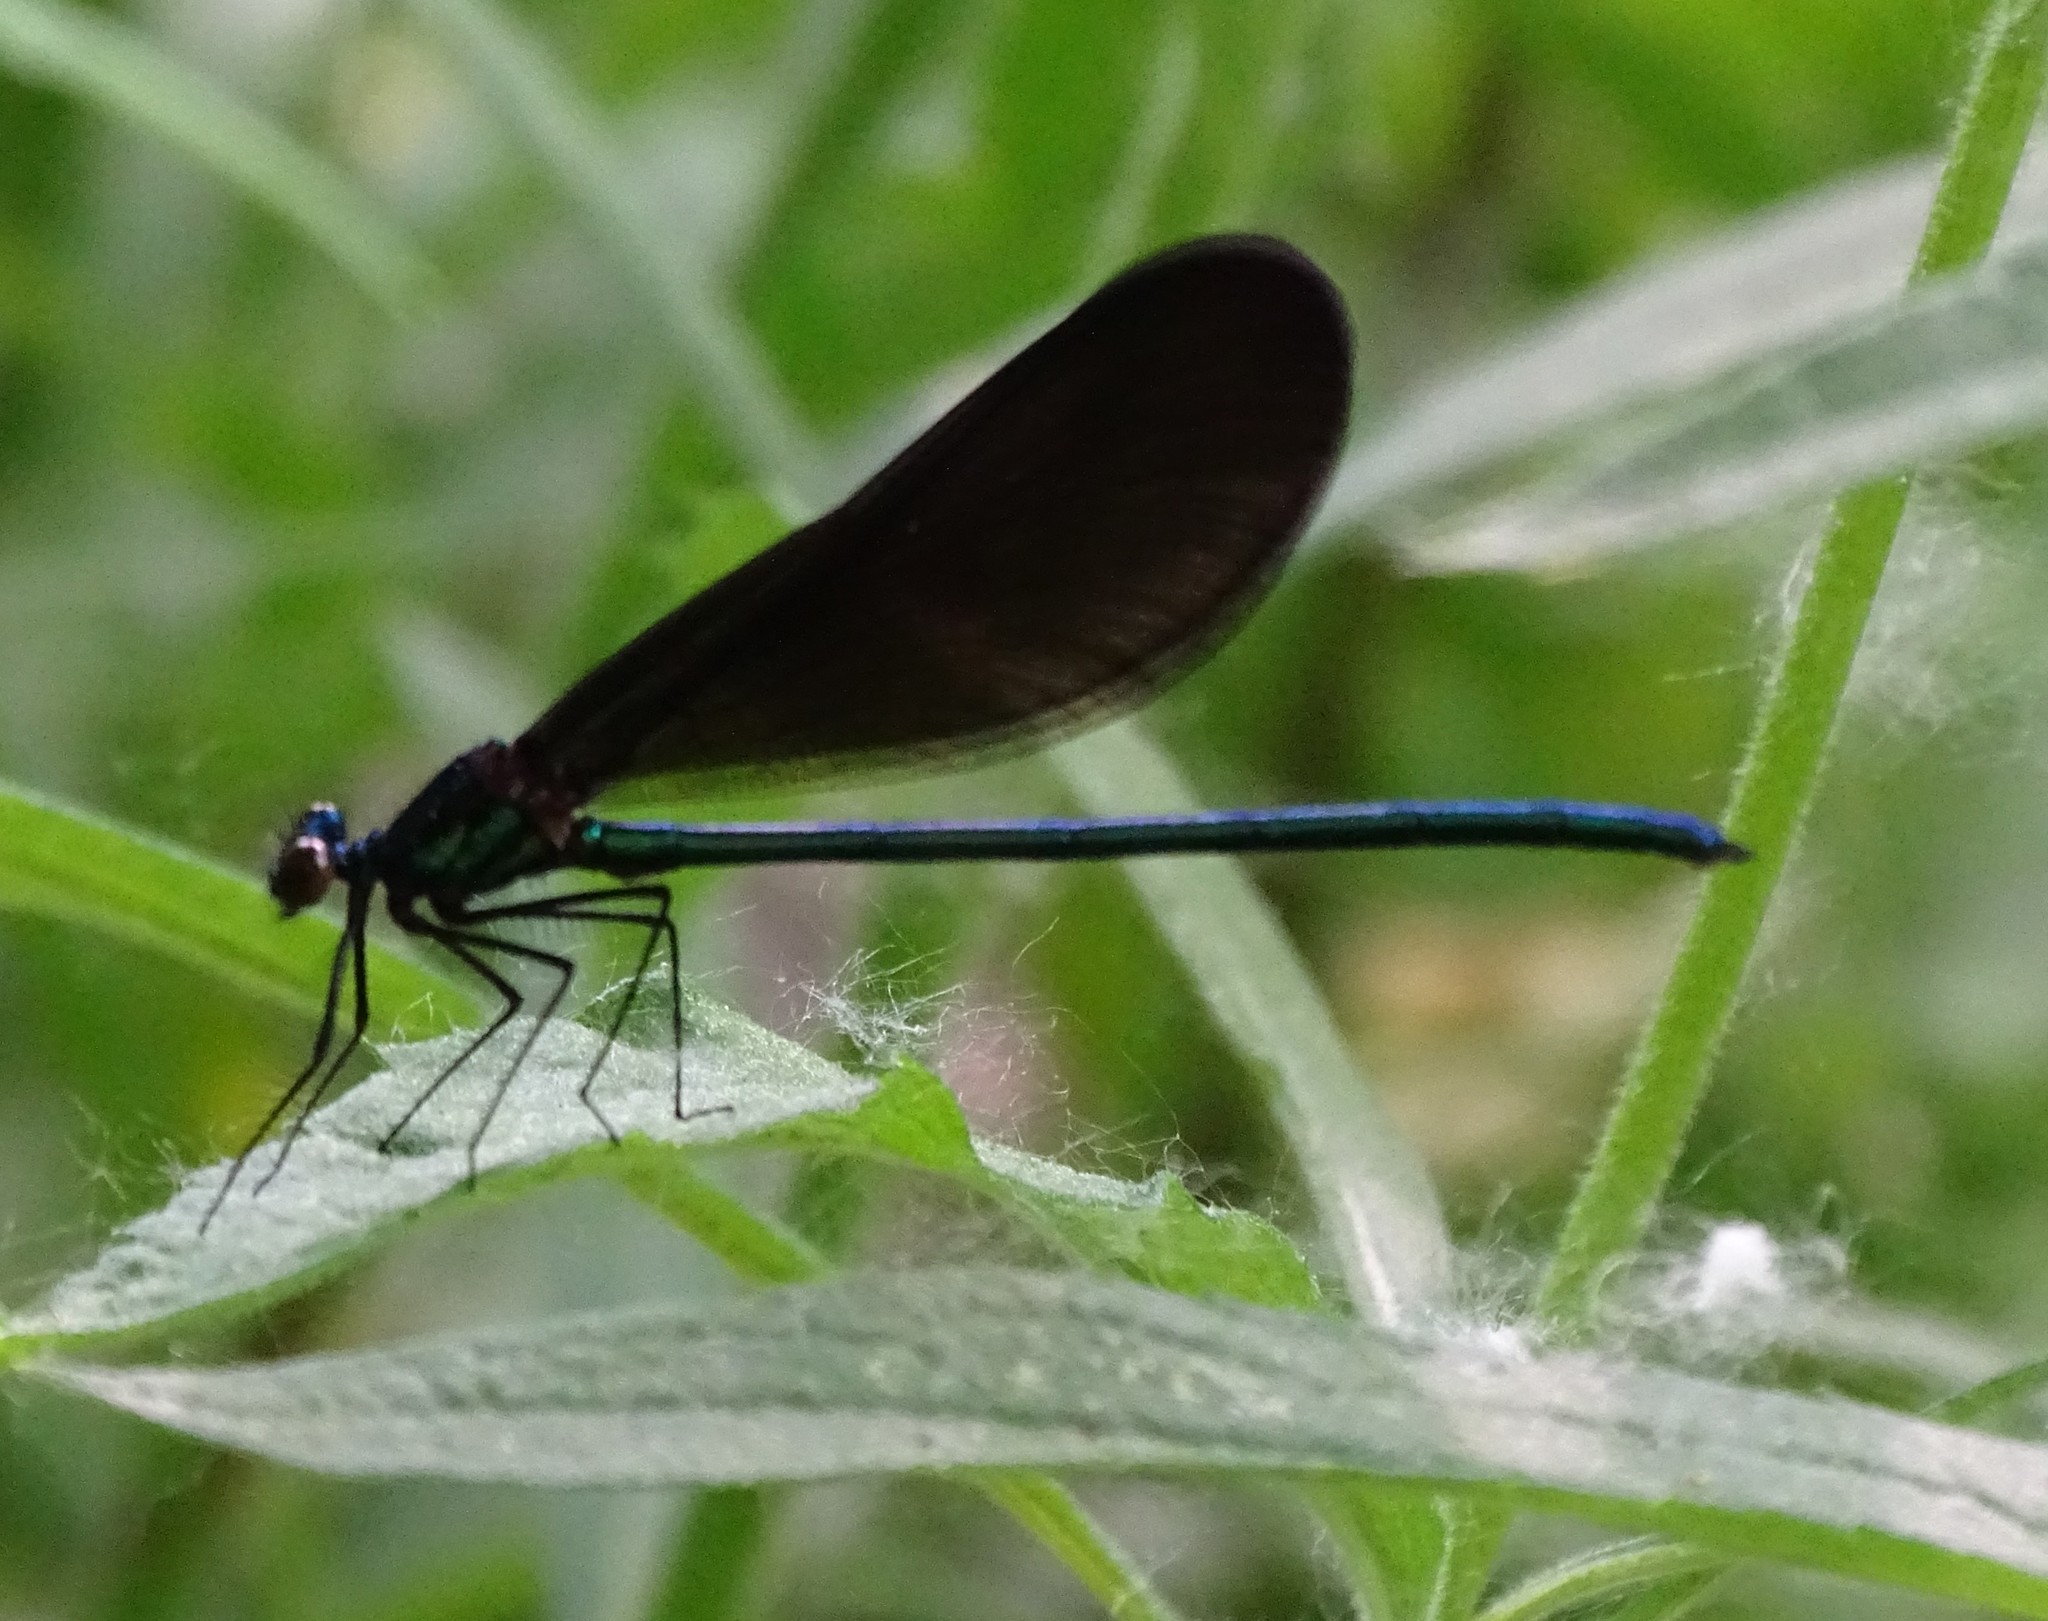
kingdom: Animalia
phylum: Arthropoda
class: Insecta
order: Odonata
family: Calopterygidae
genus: Calopteryx
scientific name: Calopteryx maculata
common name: Ebony jewelwing
